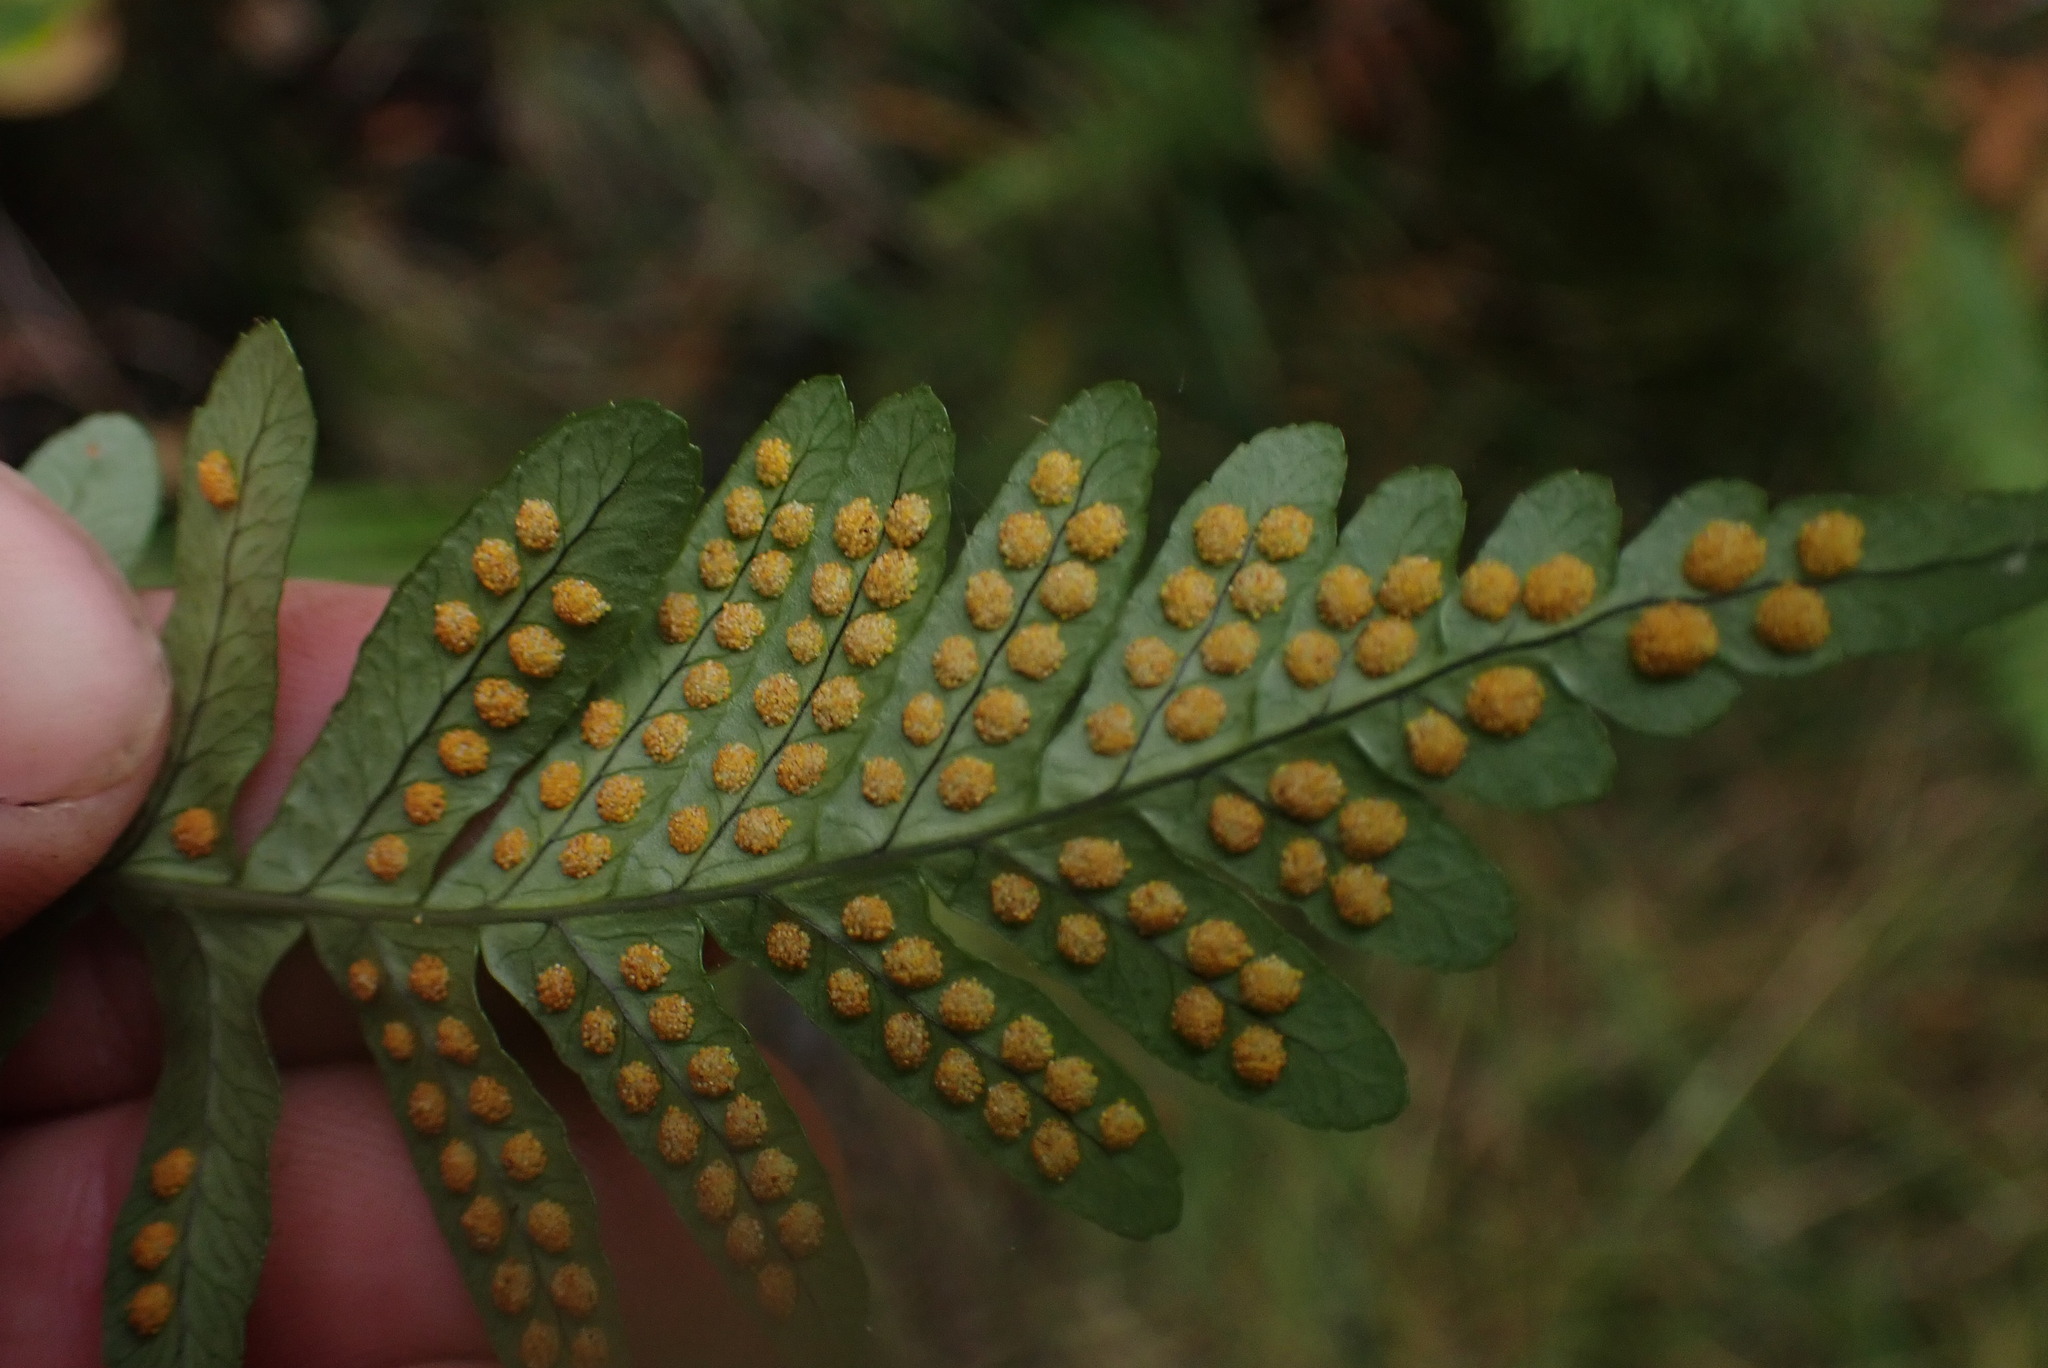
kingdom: Plantae
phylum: Tracheophyta
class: Polypodiopsida
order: Polypodiales
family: Polypodiaceae
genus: Polypodium
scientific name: Polypodium glycyrrhiza
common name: Licorice fern
